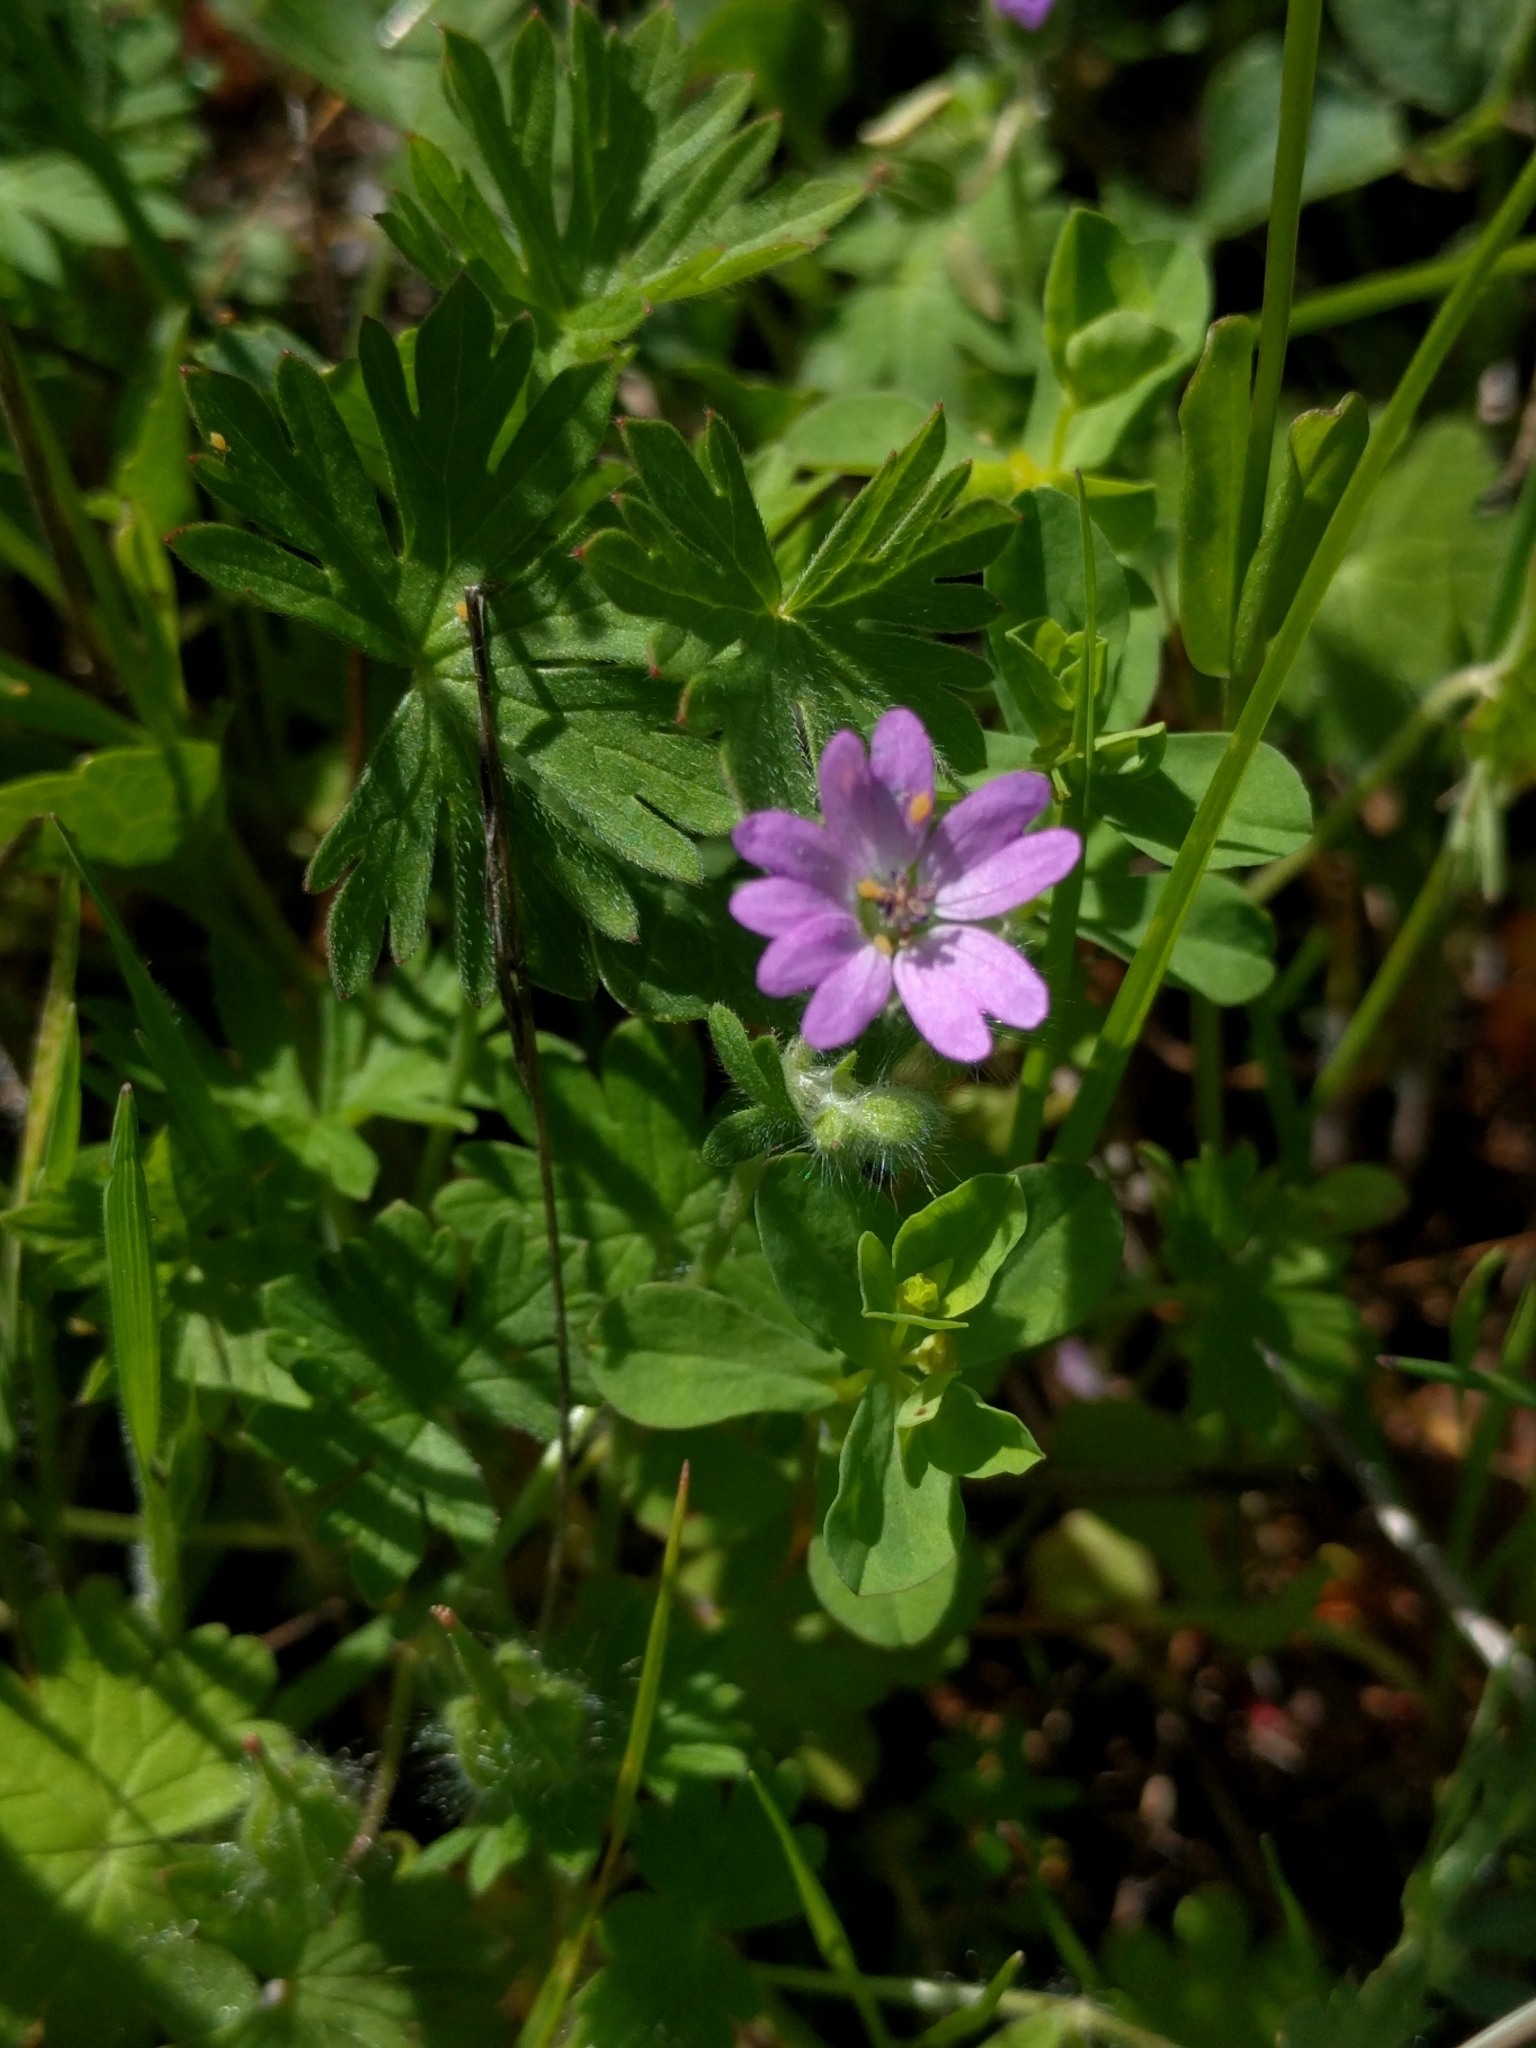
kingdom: Plantae
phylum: Tracheophyta
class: Magnoliopsida
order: Geraniales
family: Geraniaceae
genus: Geranium
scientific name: Geranium molle
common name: Dove's-foot crane's-bill
